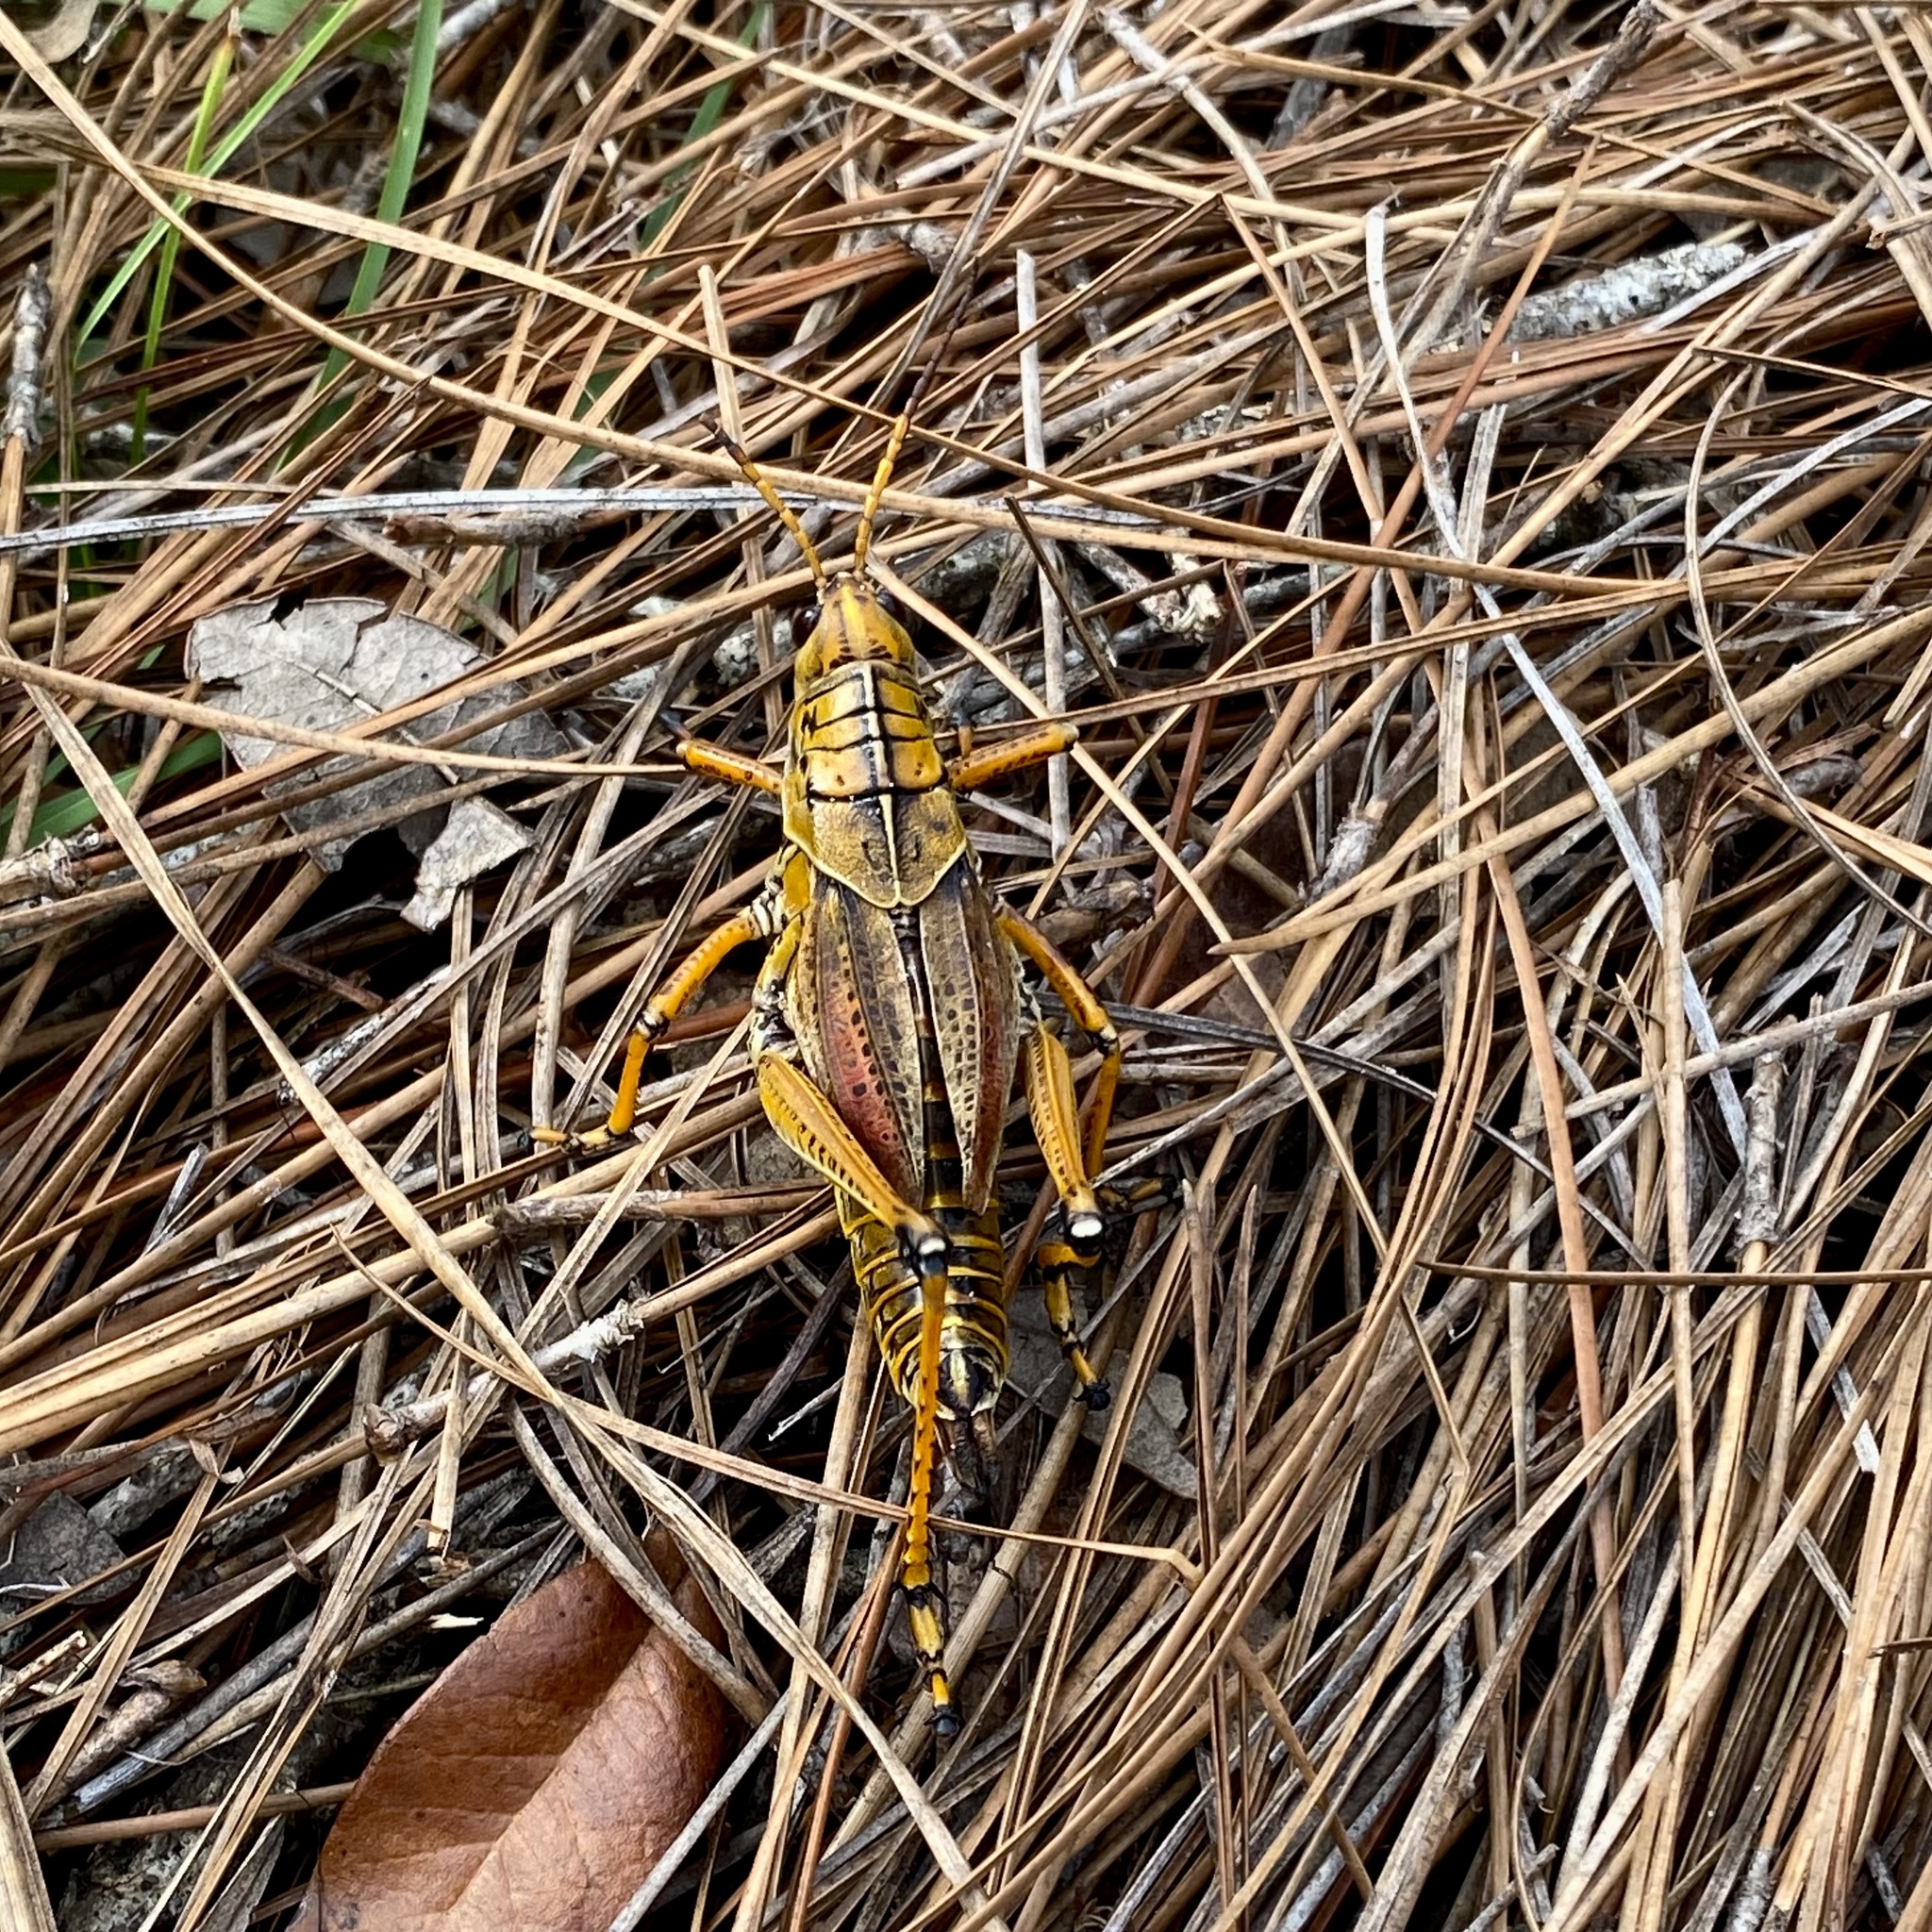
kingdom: Animalia
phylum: Arthropoda
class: Insecta
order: Orthoptera
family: Romaleidae
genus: Romalea
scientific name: Romalea microptera
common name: Eastern lubber grasshopper
